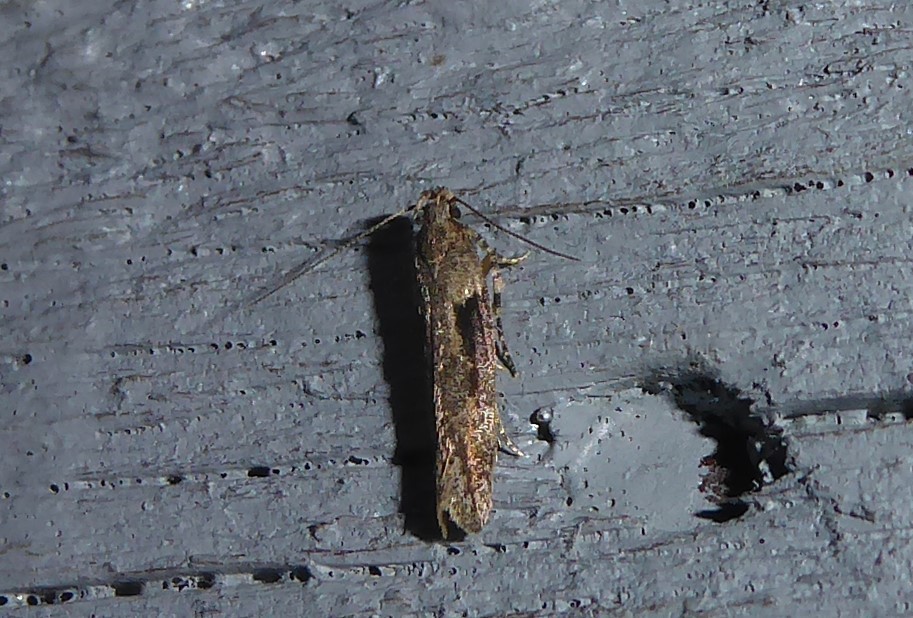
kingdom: Animalia
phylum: Arthropoda
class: Insecta
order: Lepidoptera
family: Gelechiidae
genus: Symmetrischema
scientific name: Symmetrischema tangolias
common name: Moth
